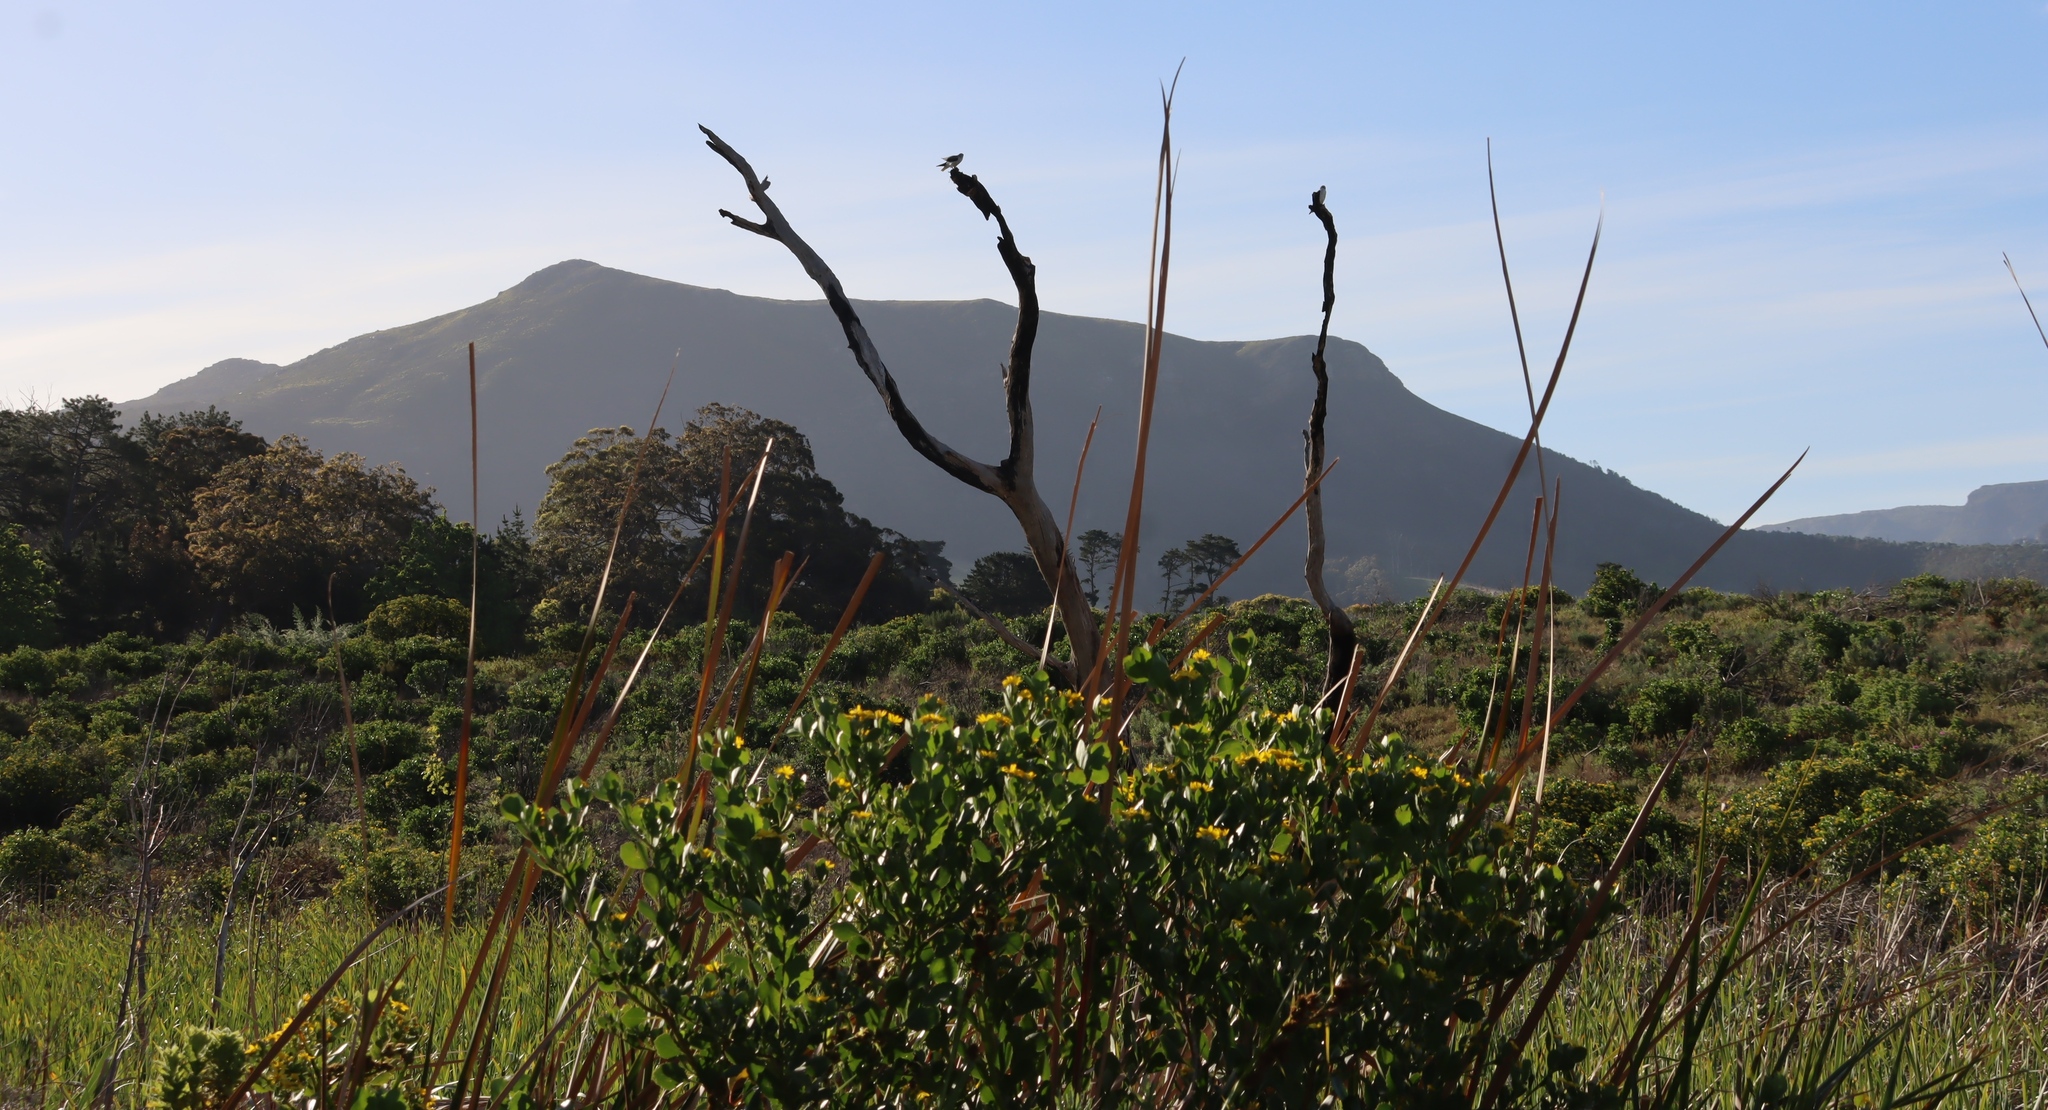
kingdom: Plantae
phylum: Tracheophyta
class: Magnoliopsida
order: Asterales
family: Asteraceae
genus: Osteospermum
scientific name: Osteospermum moniliferum
